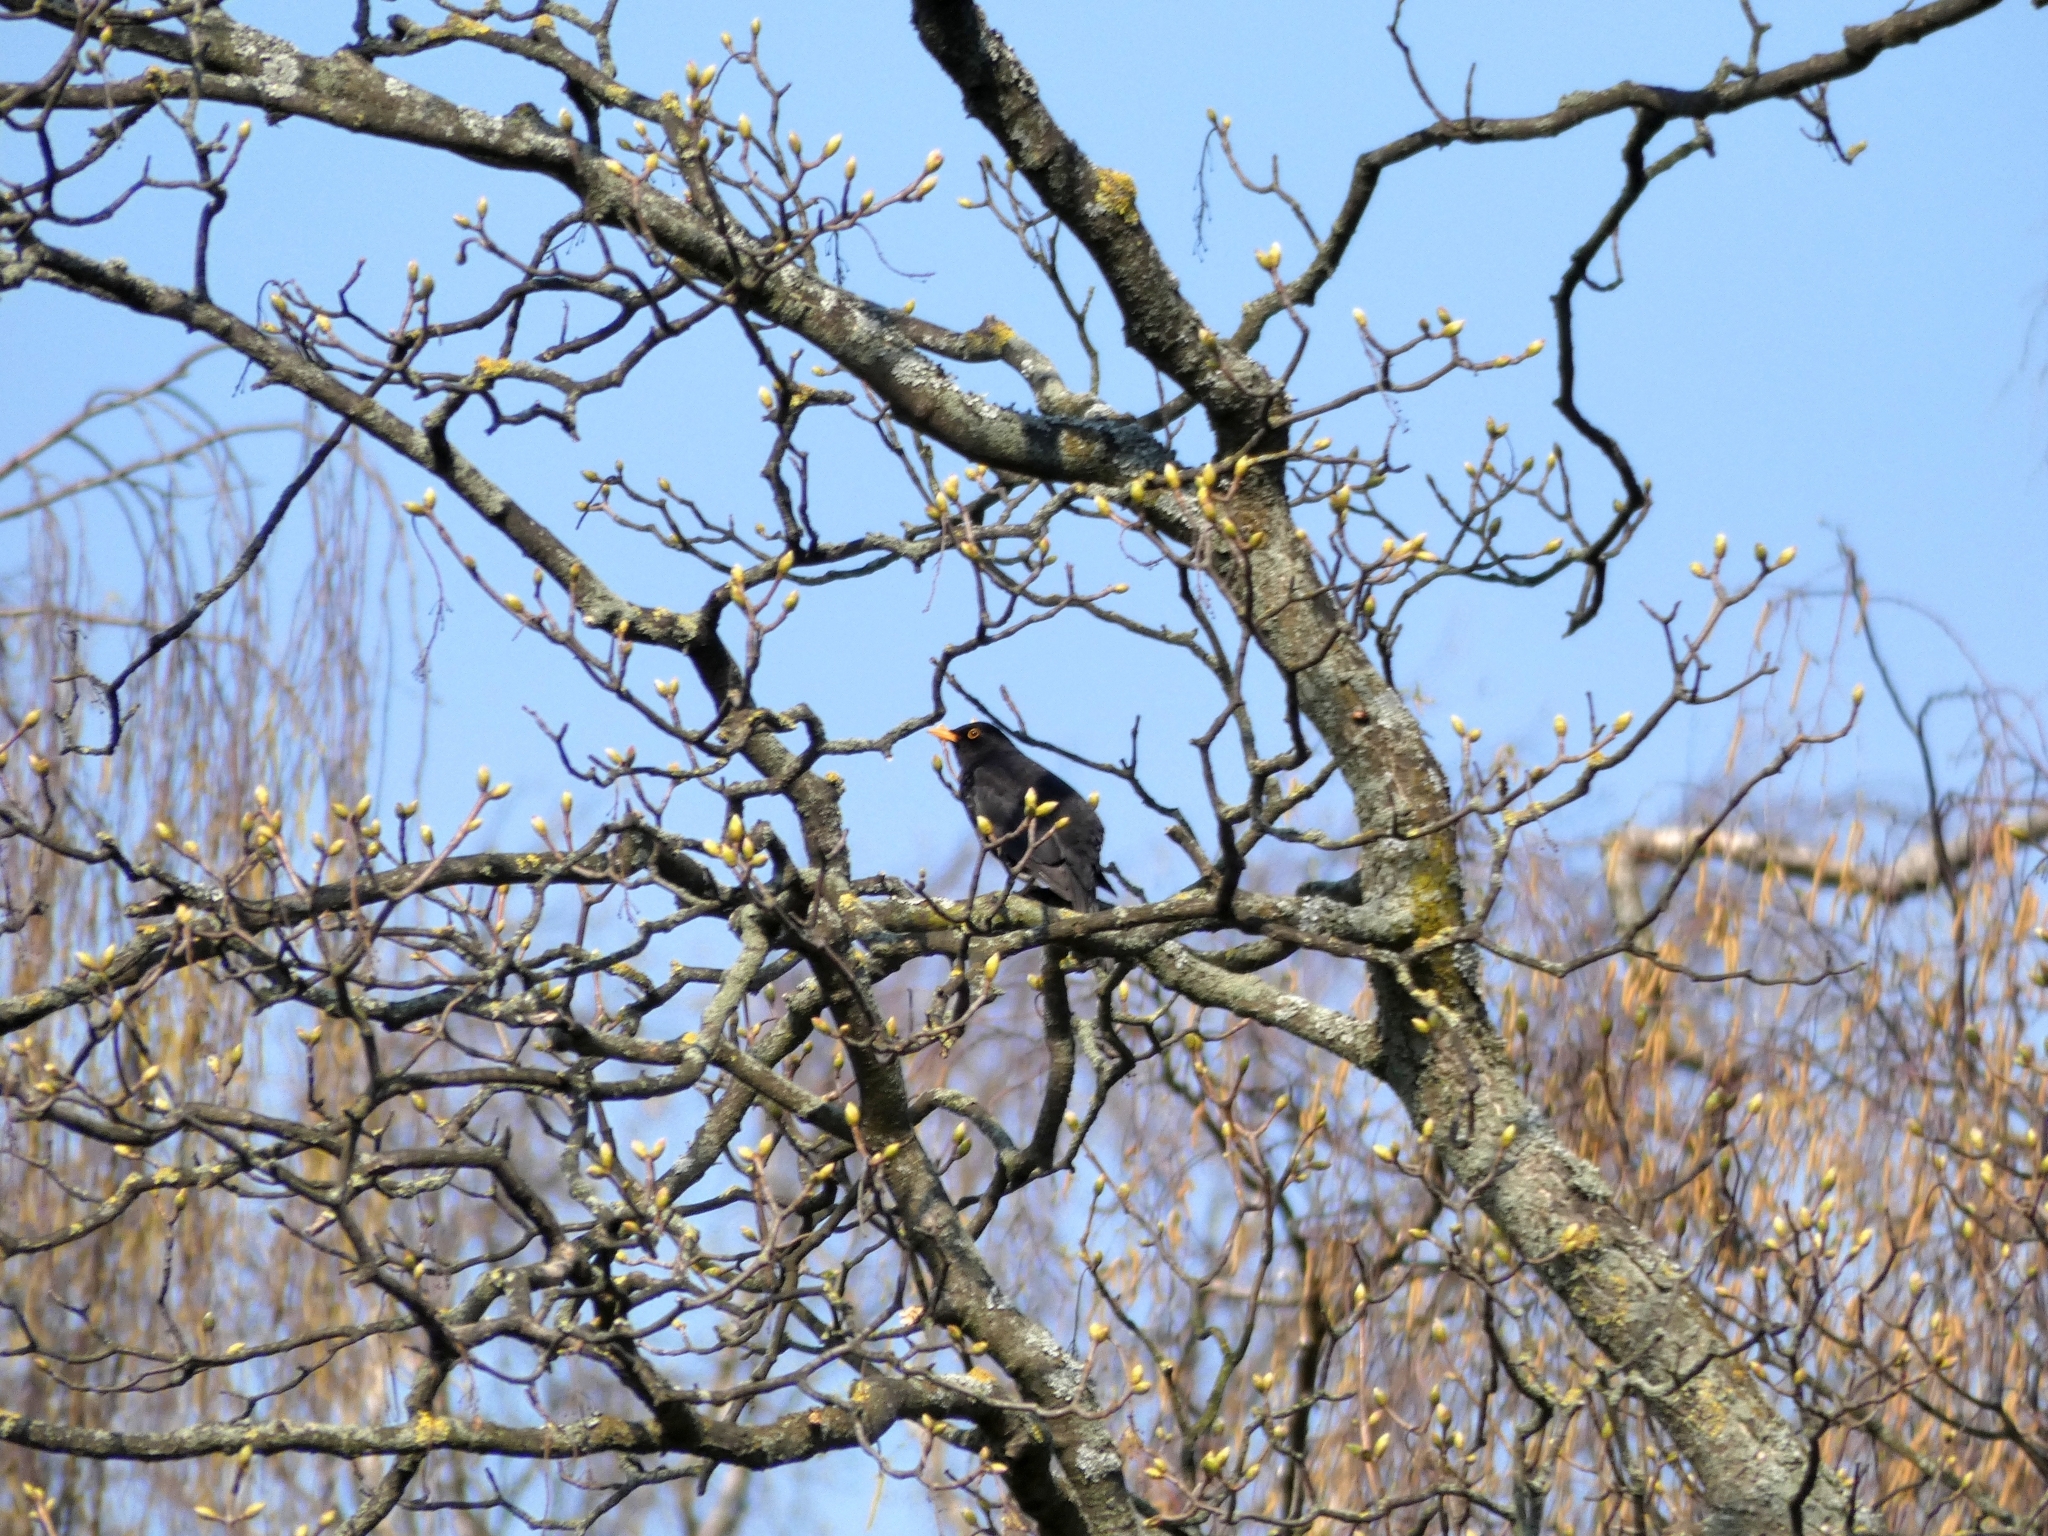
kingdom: Animalia
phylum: Chordata
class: Aves
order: Passeriformes
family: Turdidae
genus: Turdus
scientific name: Turdus merula
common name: Common blackbird
